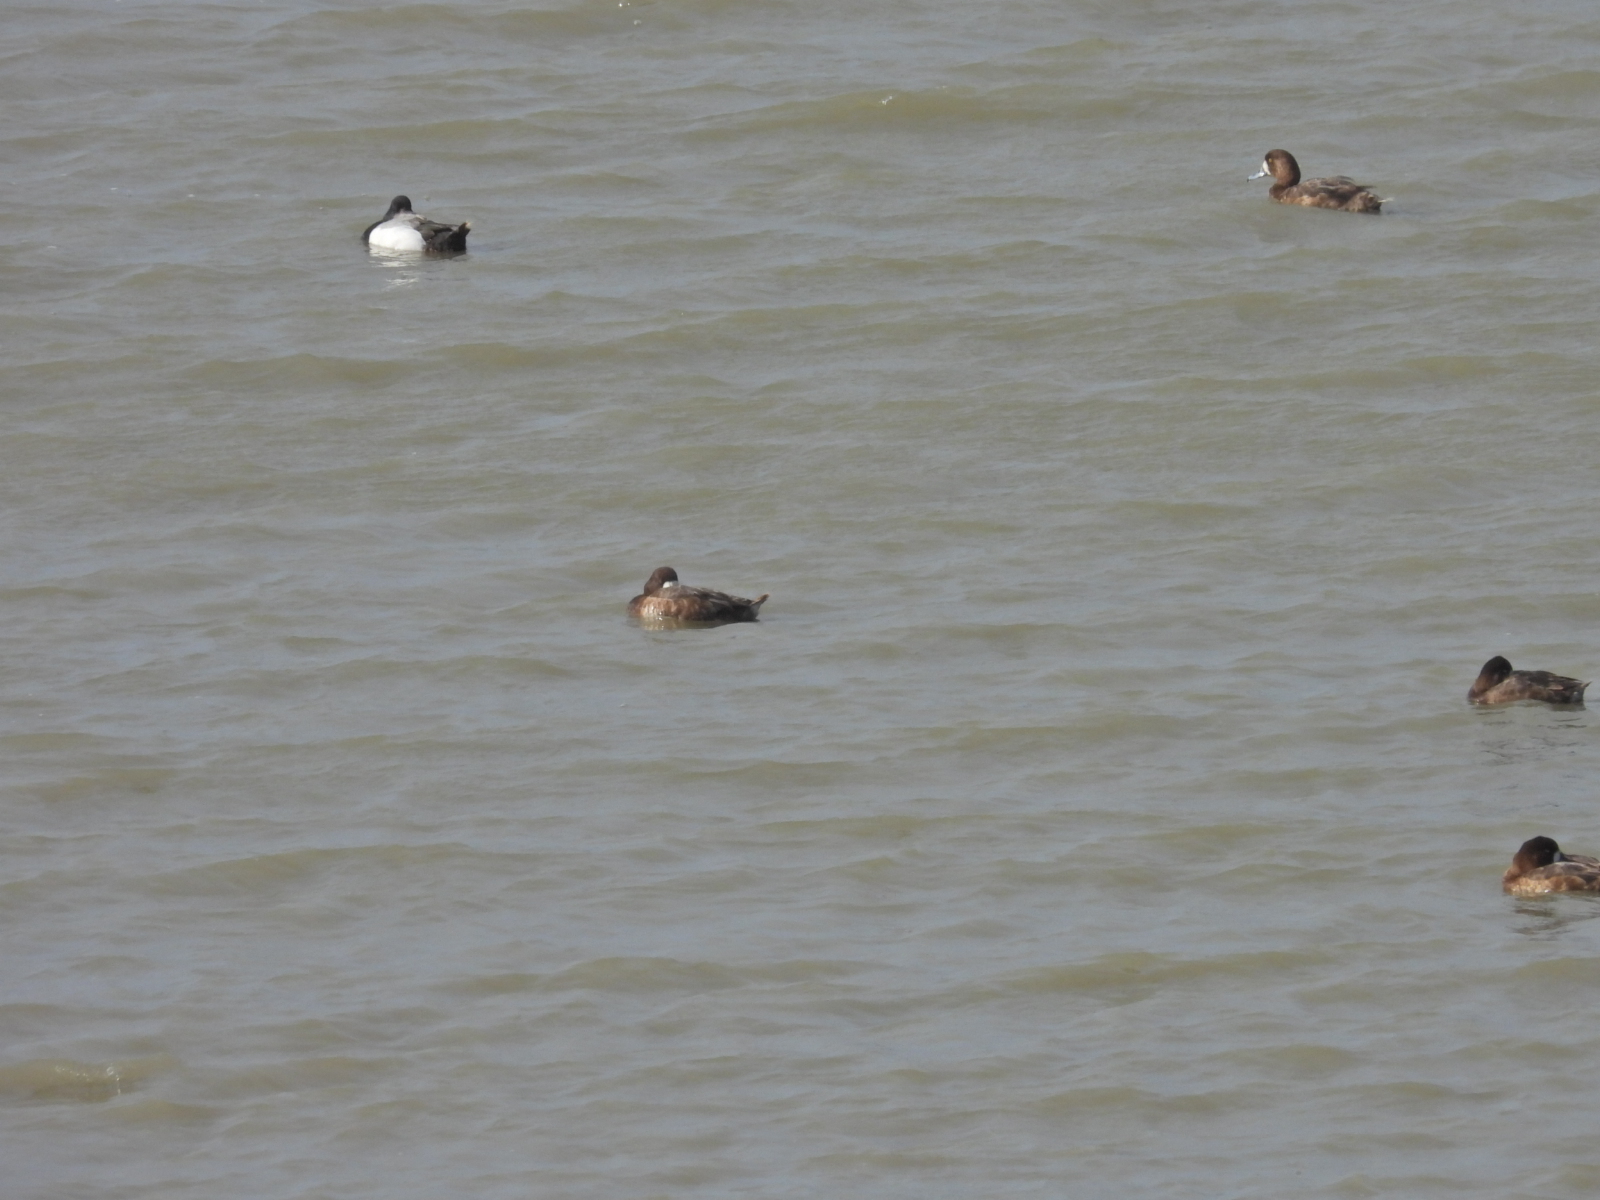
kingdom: Animalia
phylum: Chordata
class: Aves
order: Anseriformes
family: Anatidae
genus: Aythya
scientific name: Aythya affinis
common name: Lesser scaup
